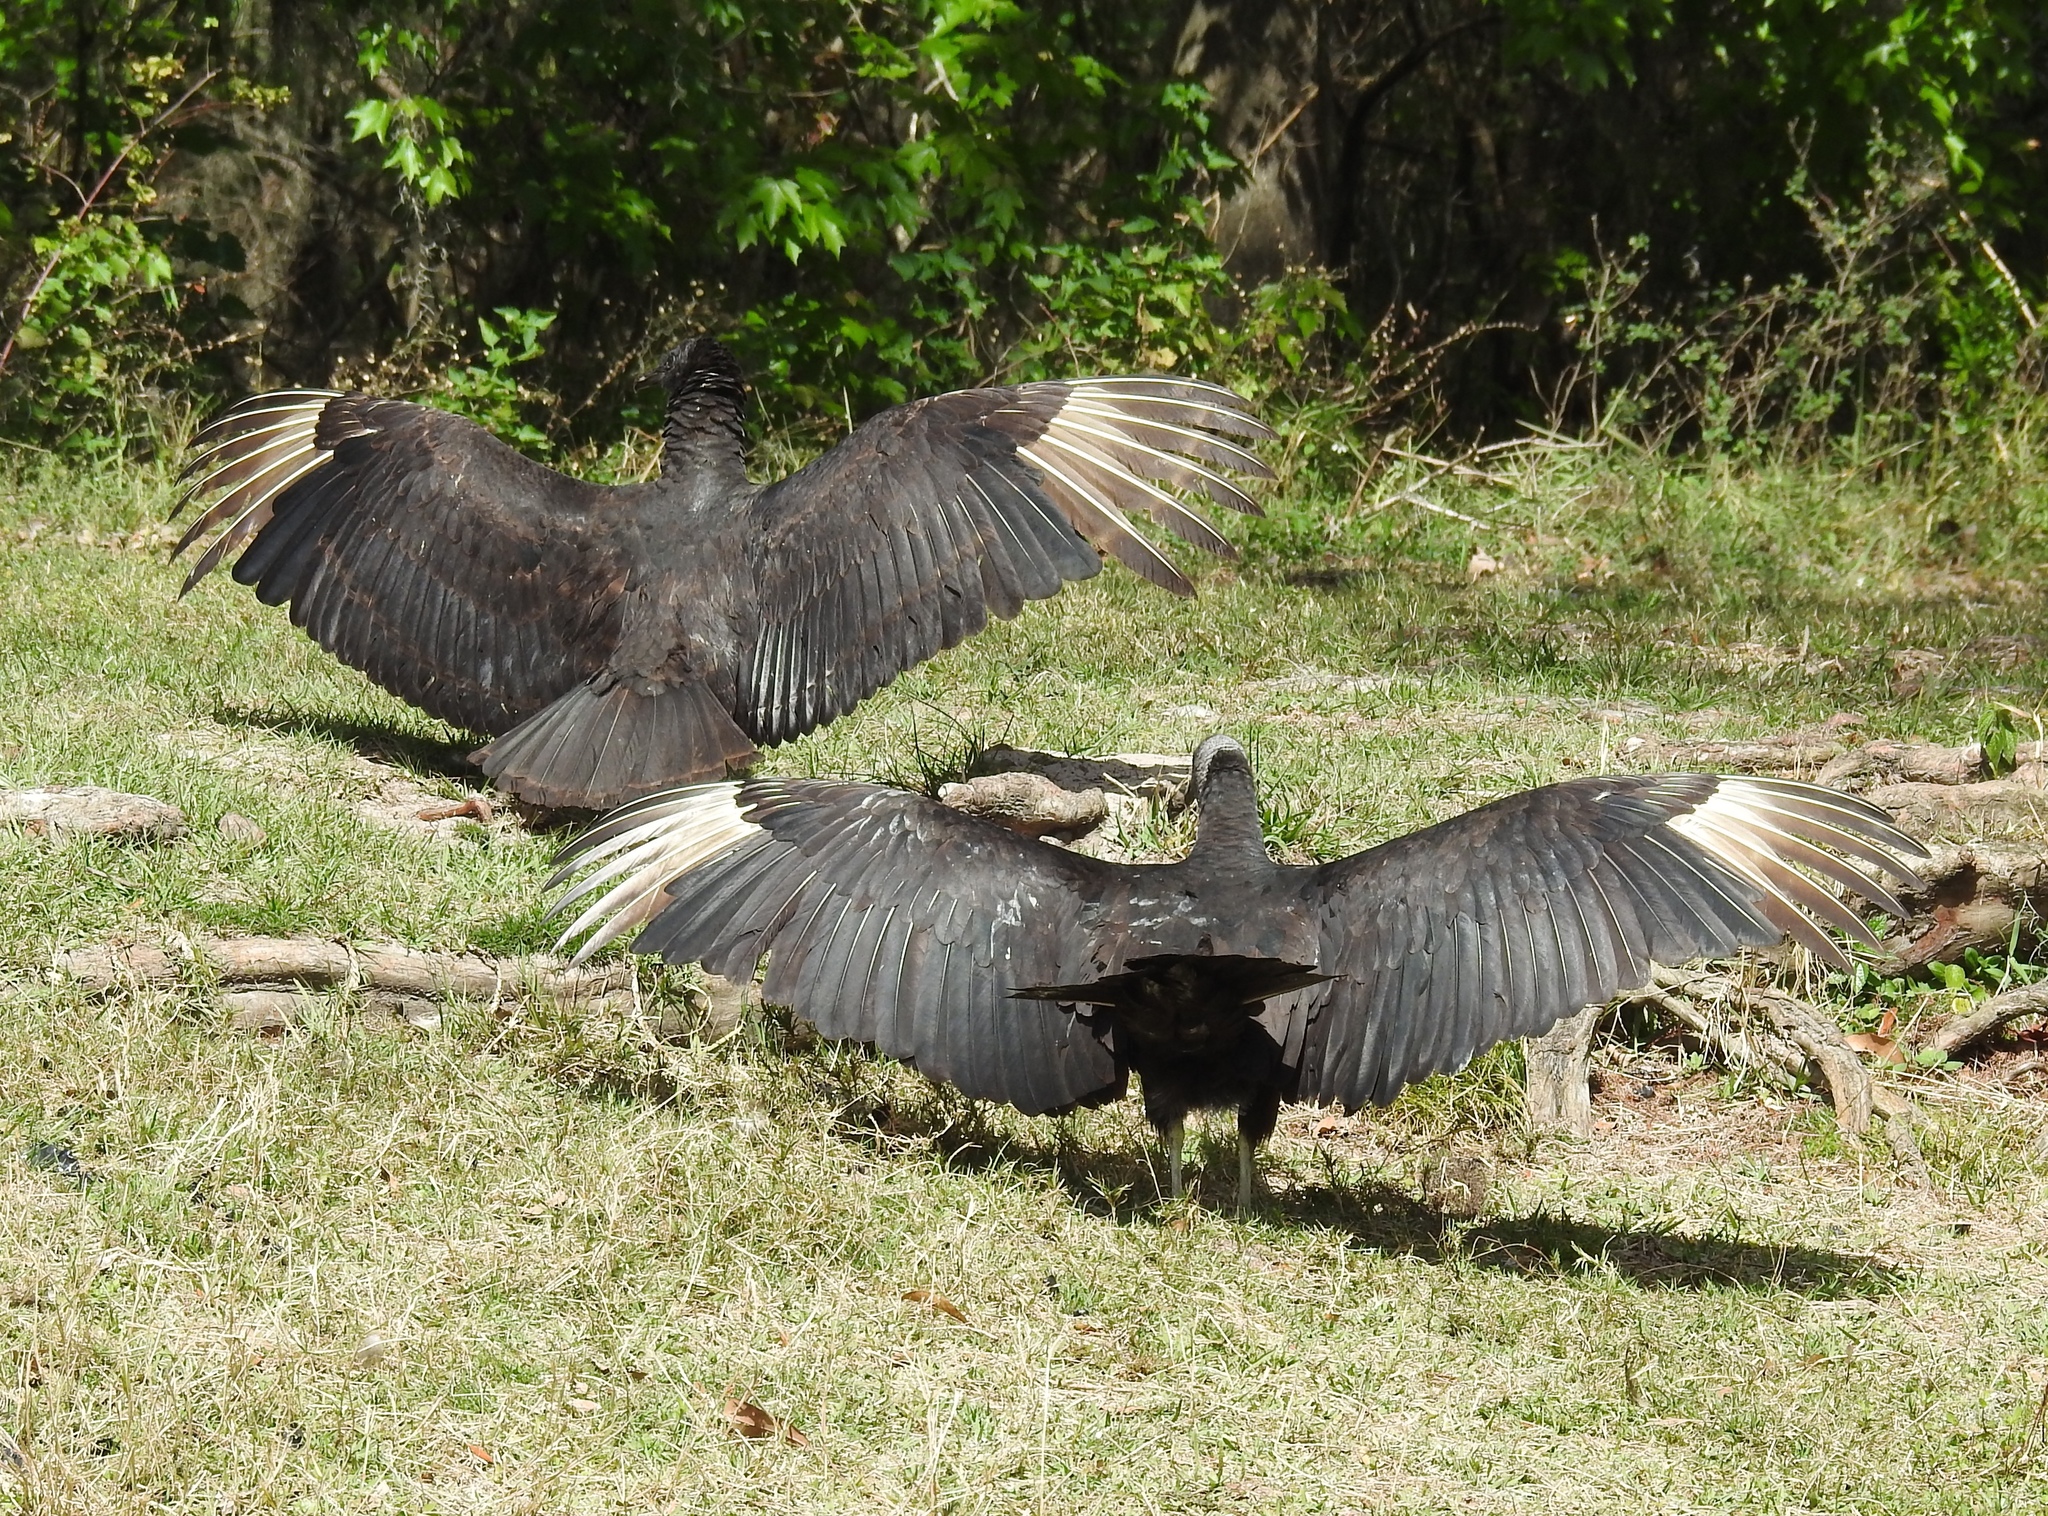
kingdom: Animalia
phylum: Chordata
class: Aves
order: Accipitriformes
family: Cathartidae
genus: Coragyps
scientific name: Coragyps atratus
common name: Black vulture
